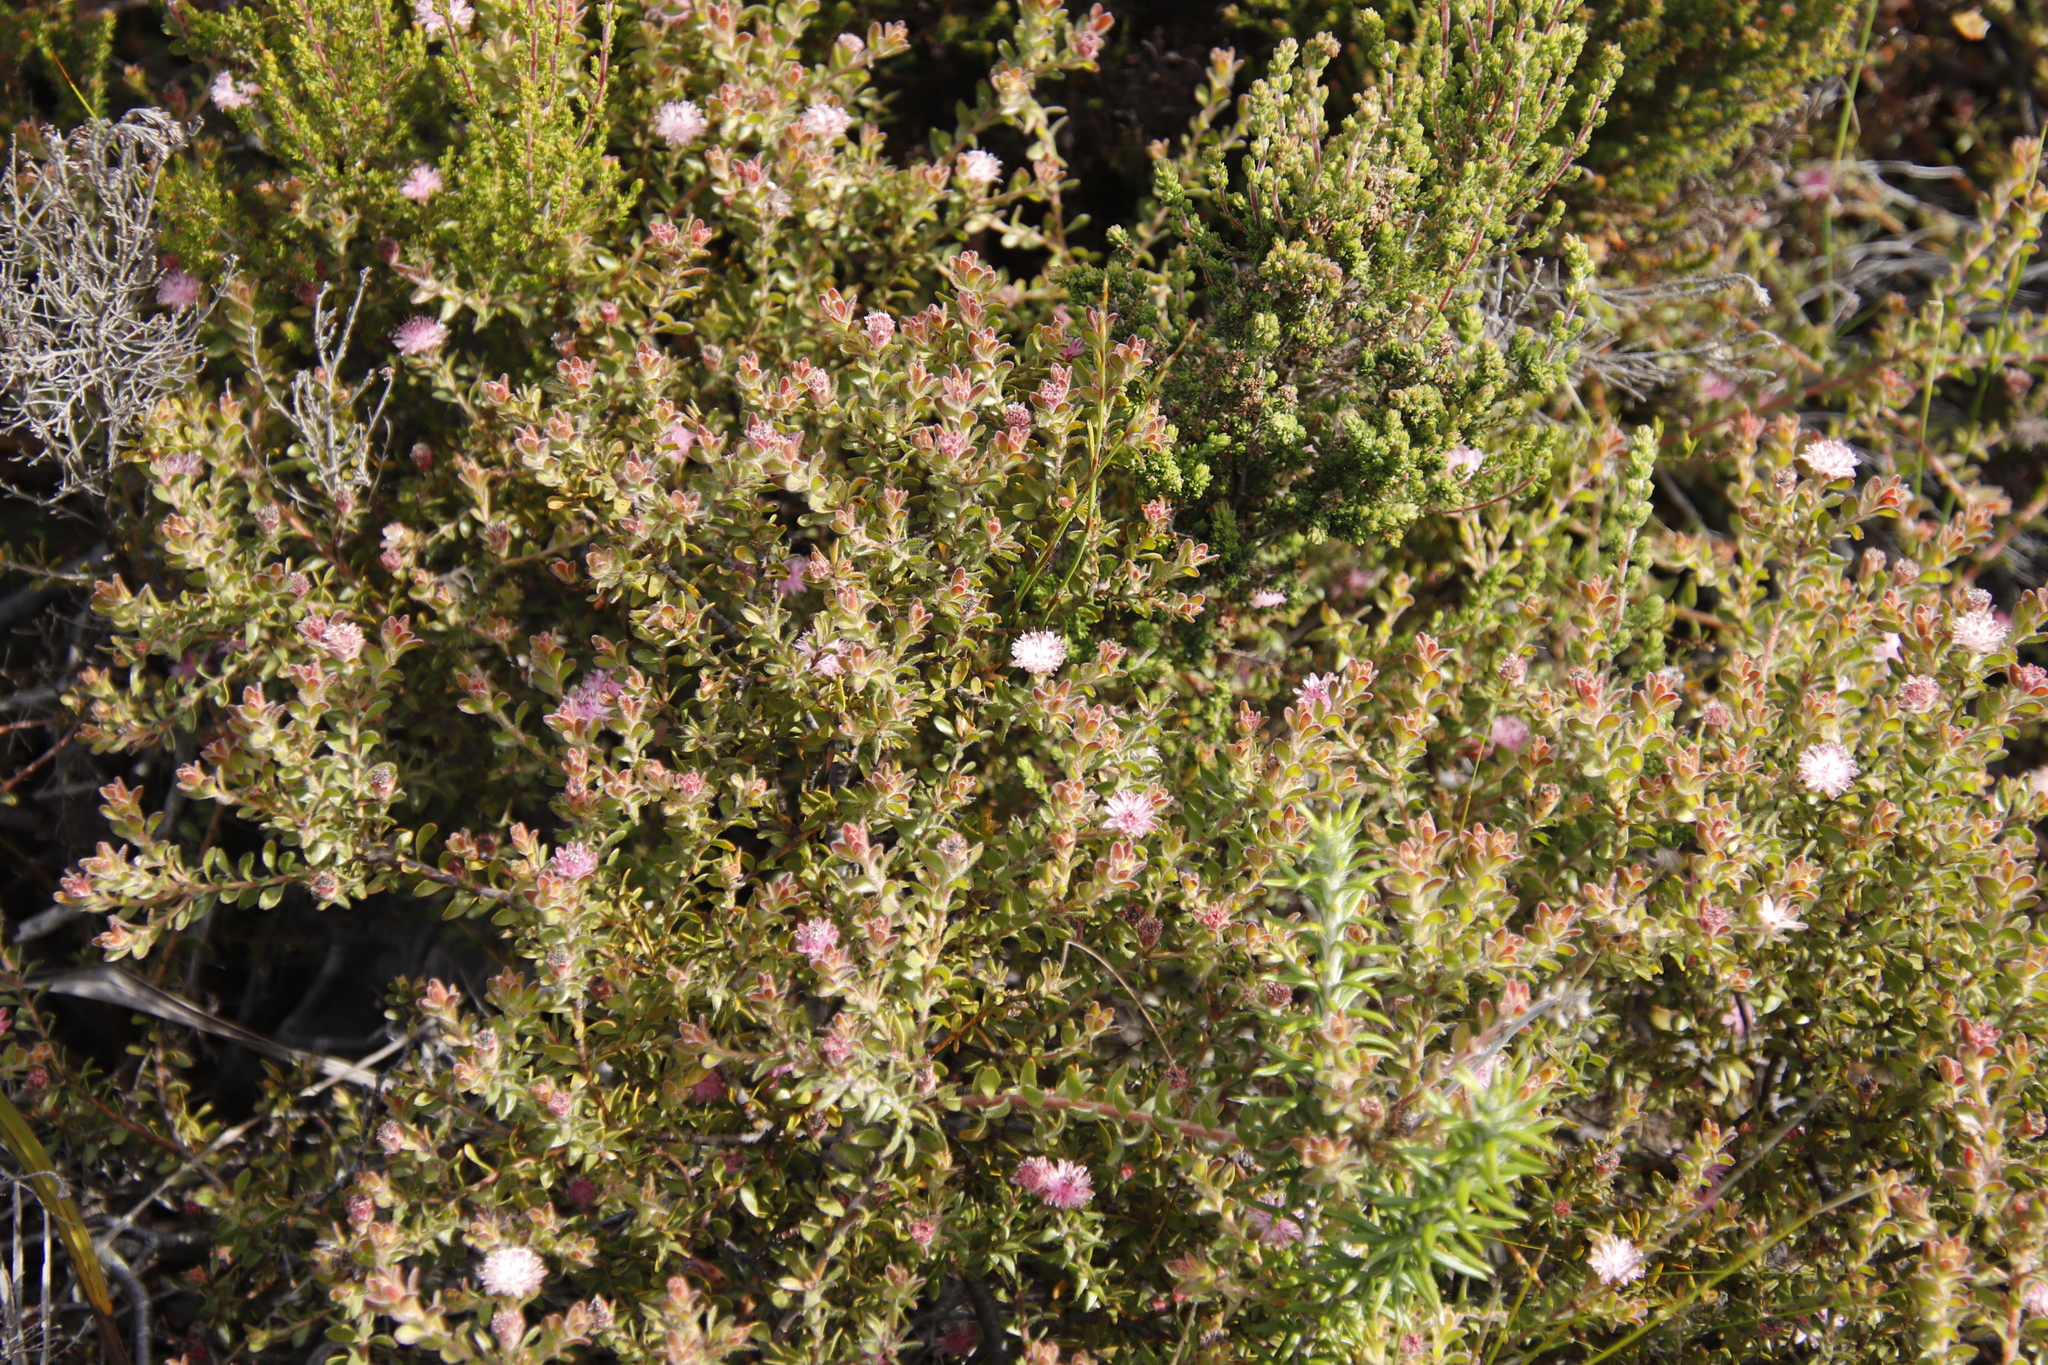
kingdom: Plantae
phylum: Tracheophyta
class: Magnoliopsida
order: Proteales
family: Proteaceae
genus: Diastella
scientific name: Diastella divaricata
